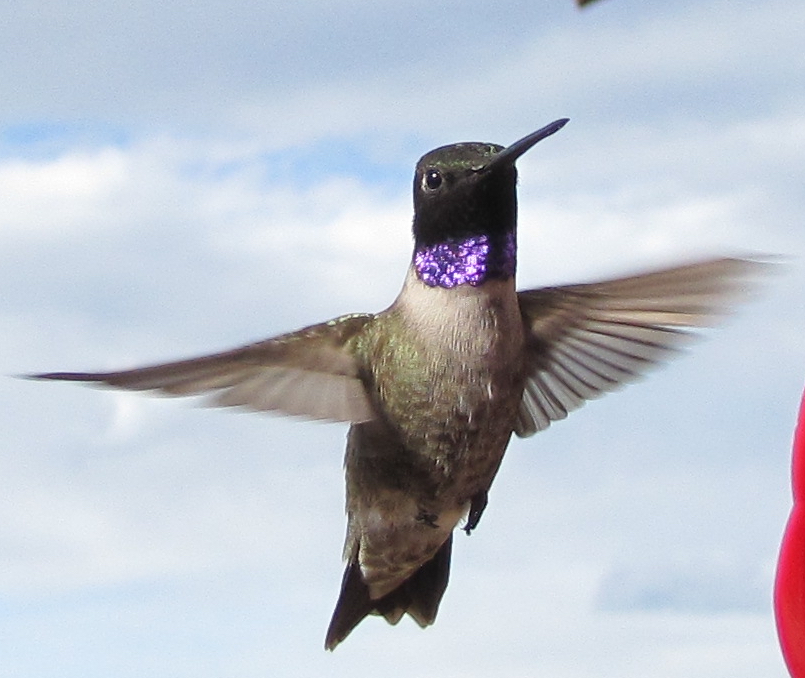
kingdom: Animalia
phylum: Chordata
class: Aves
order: Apodiformes
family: Trochilidae
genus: Archilochus
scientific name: Archilochus alexandri
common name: Black-chinned hummingbird
